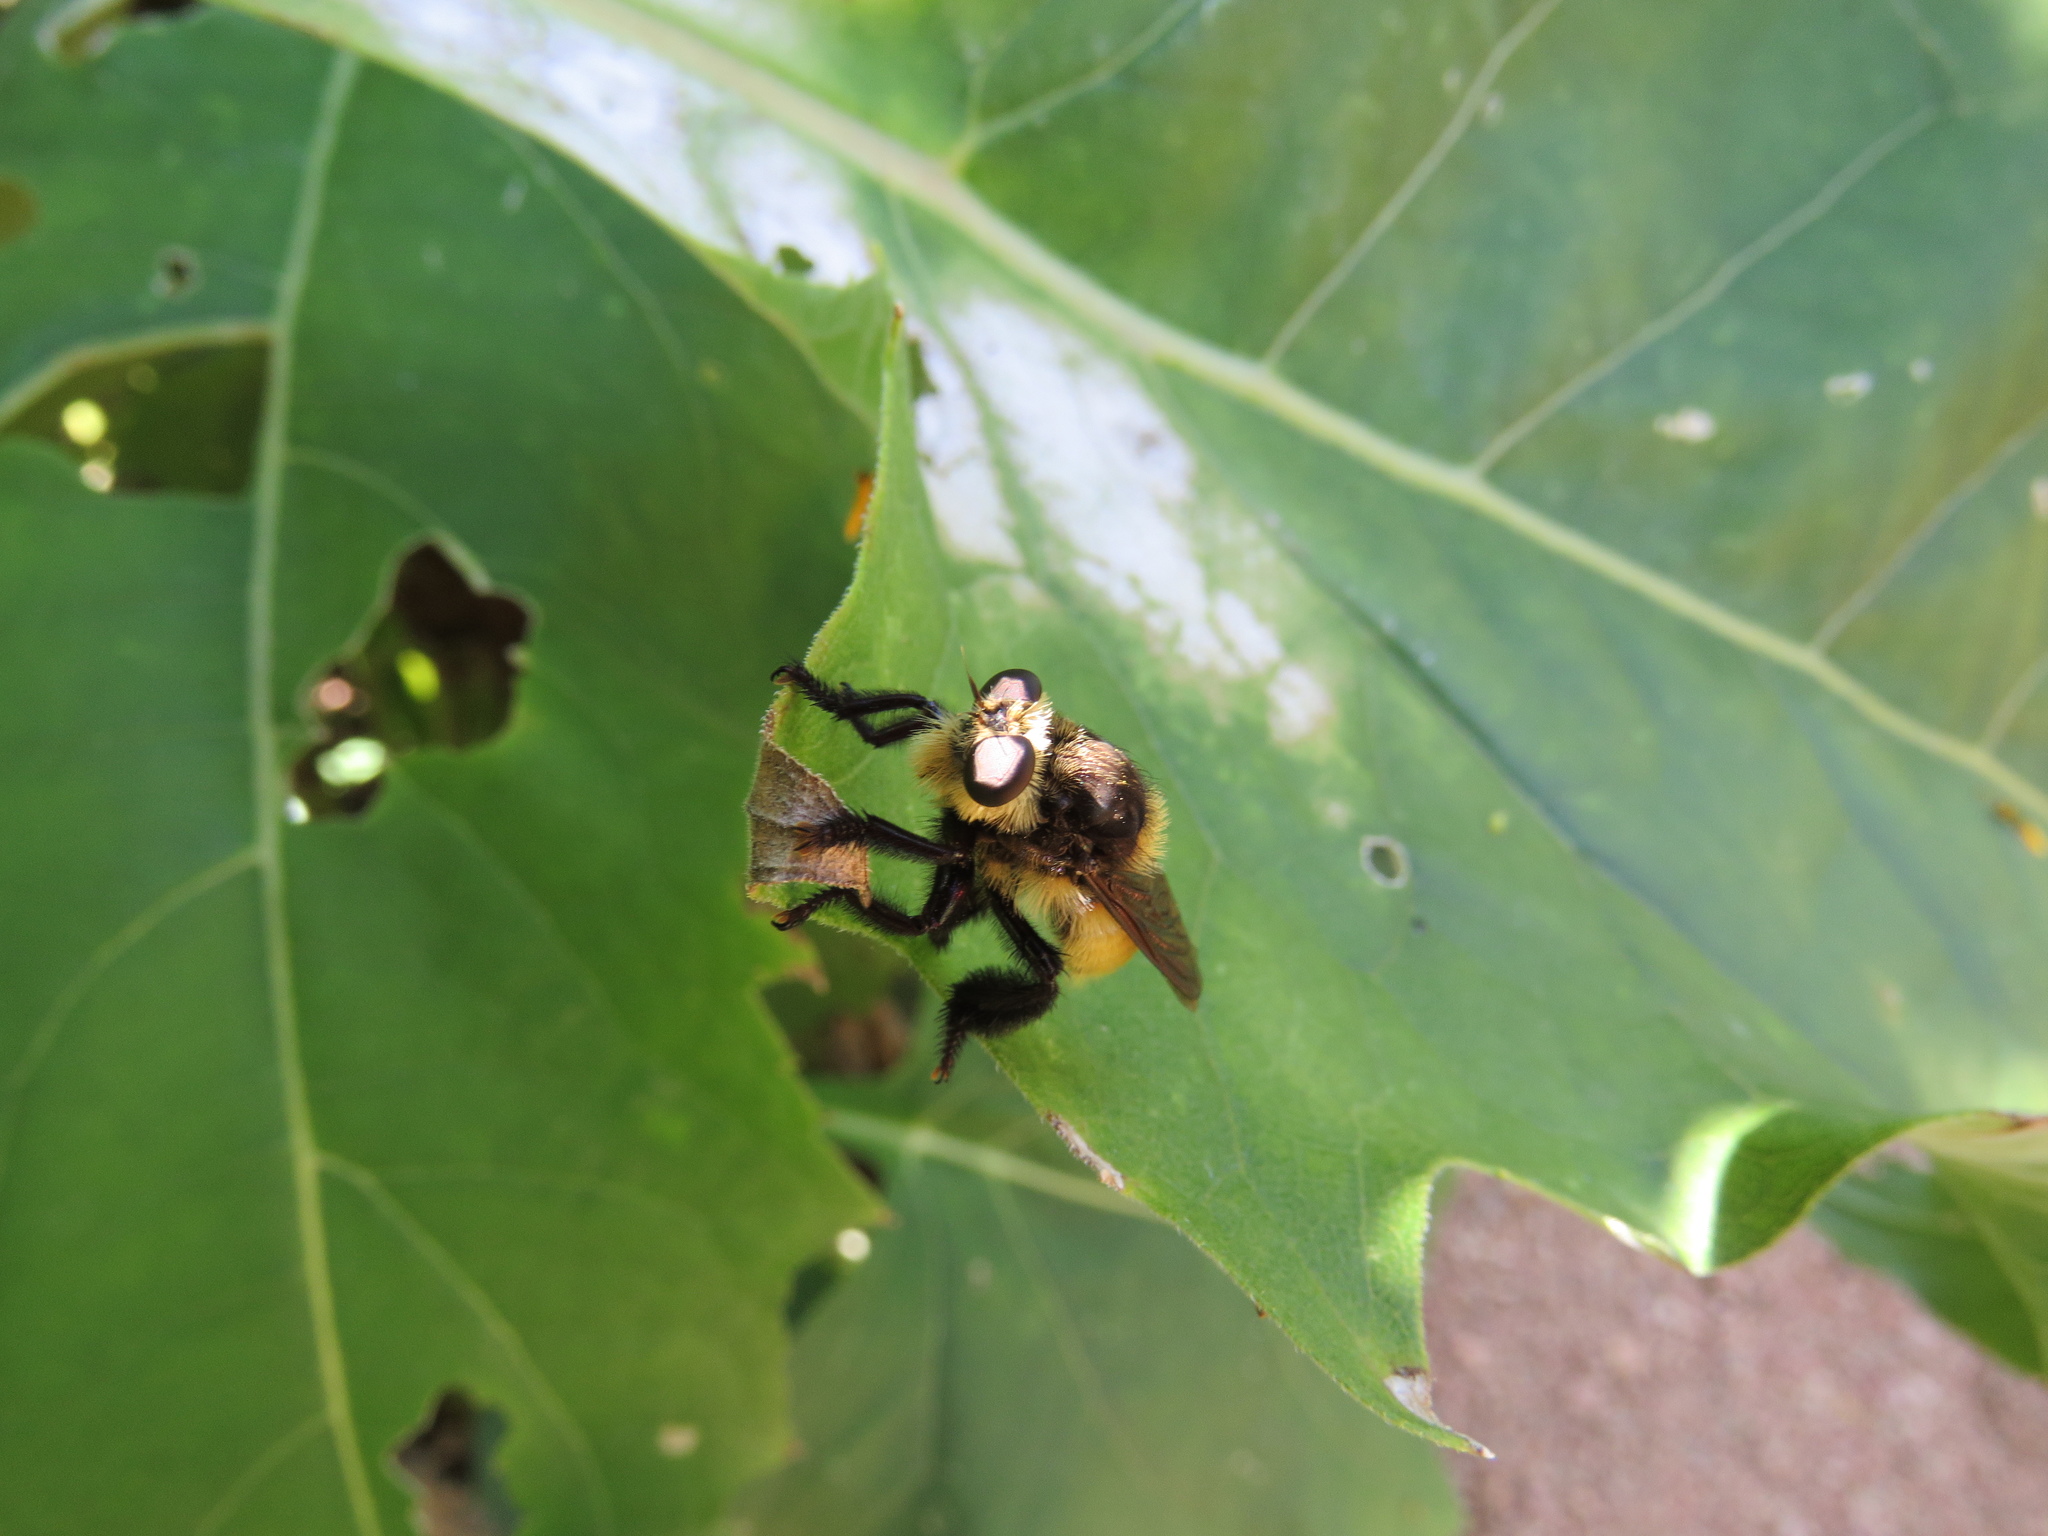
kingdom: Animalia
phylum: Arthropoda
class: Insecta
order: Diptera
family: Asilidae
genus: Mallophora
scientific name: Mallophora fautrix
